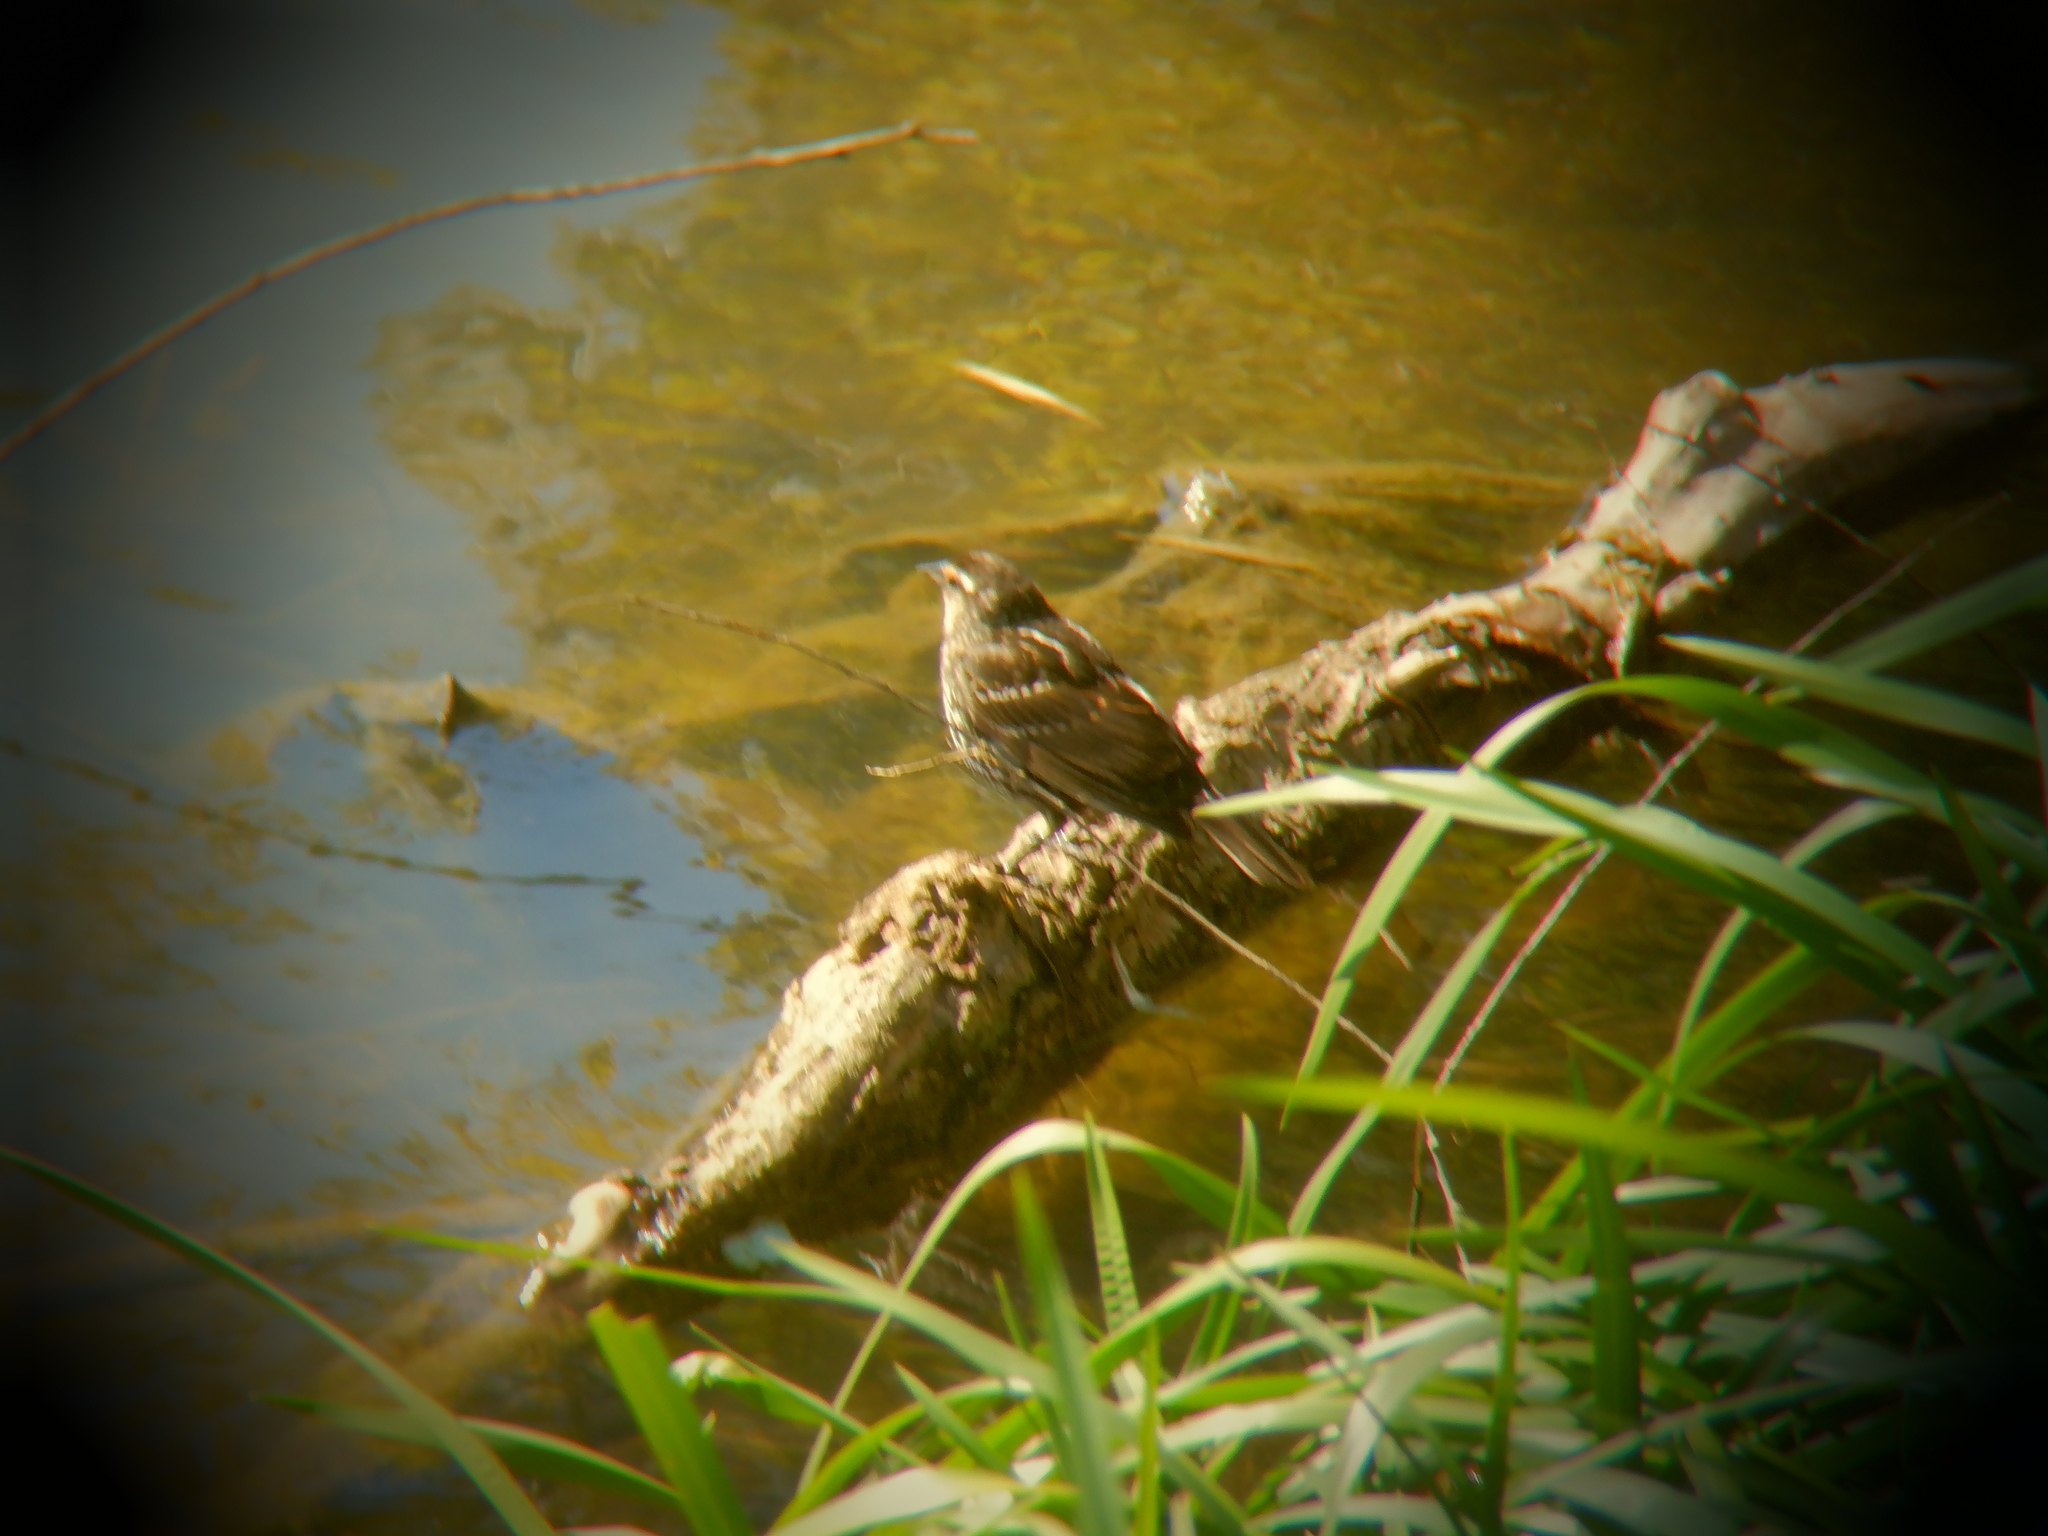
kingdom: Animalia
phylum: Chordata
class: Aves
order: Passeriformes
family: Icteridae
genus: Agelaius
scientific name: Agelaius phoeniceus
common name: Red-winged blackbird
